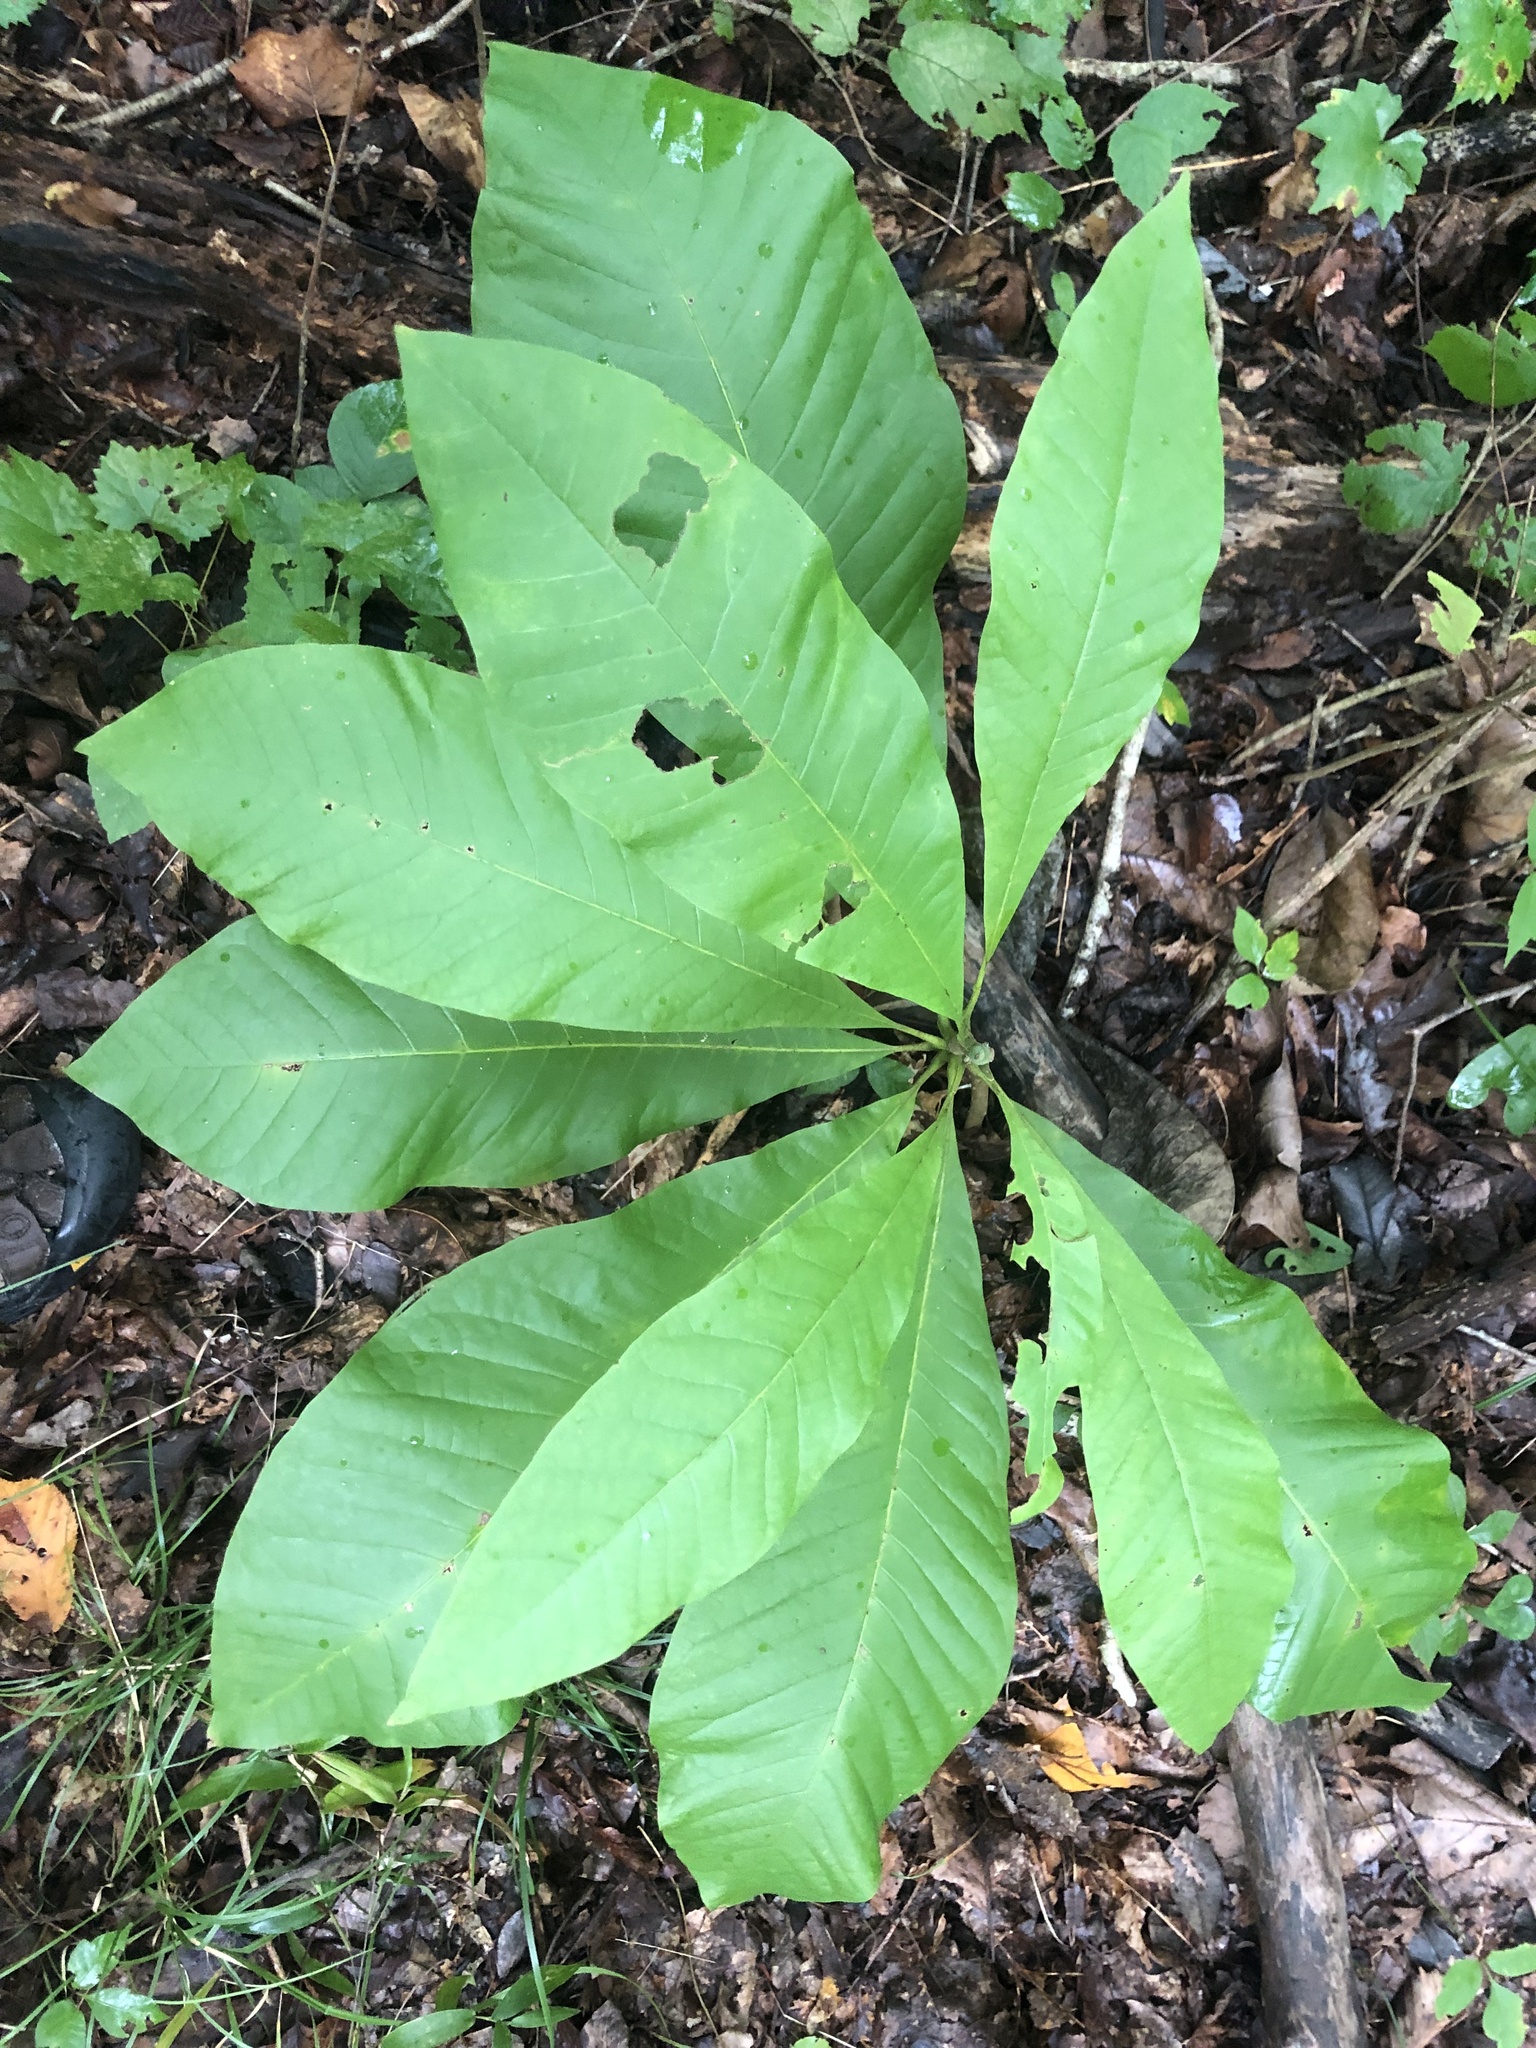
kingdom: Plantae
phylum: Tracheophyta
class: Magnoliopsida
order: Magnoliales
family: Magnoliaceae
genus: Magnolia
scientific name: Magnolia tripetala
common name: Umbrella magnolia
